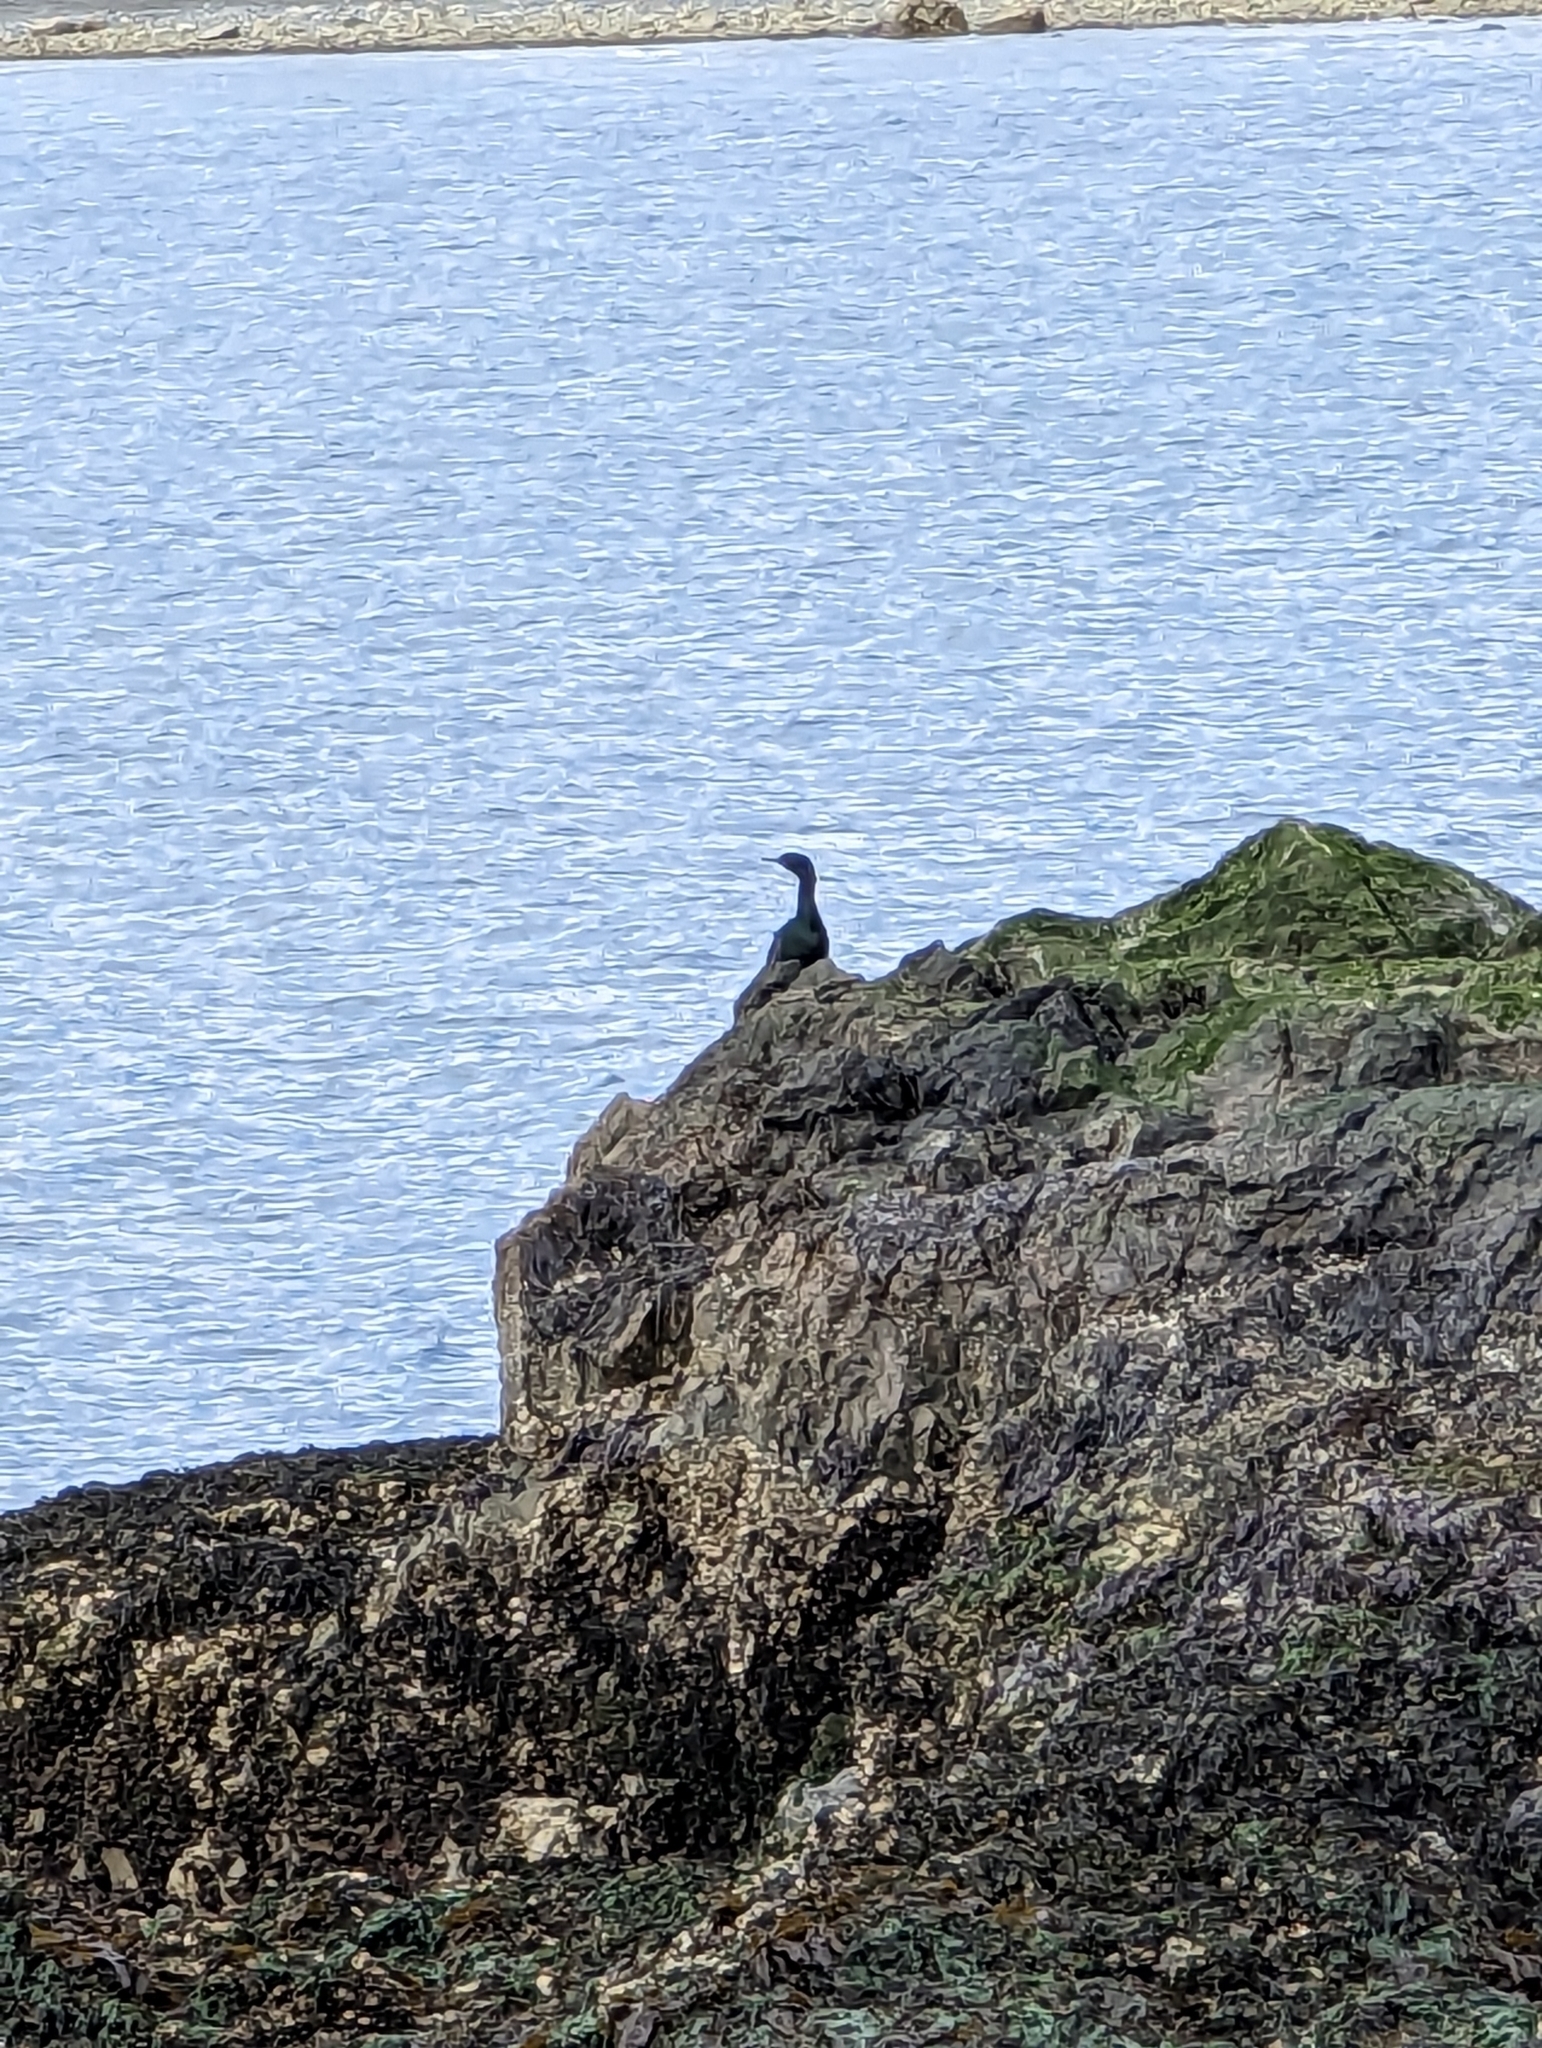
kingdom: Animalia
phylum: Chordata
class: Aves
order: Suliformes
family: Phalacrocoracidae
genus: Phalacrocorax
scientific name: Phalacrocorax pelagicus
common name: Pelagic cormorant
